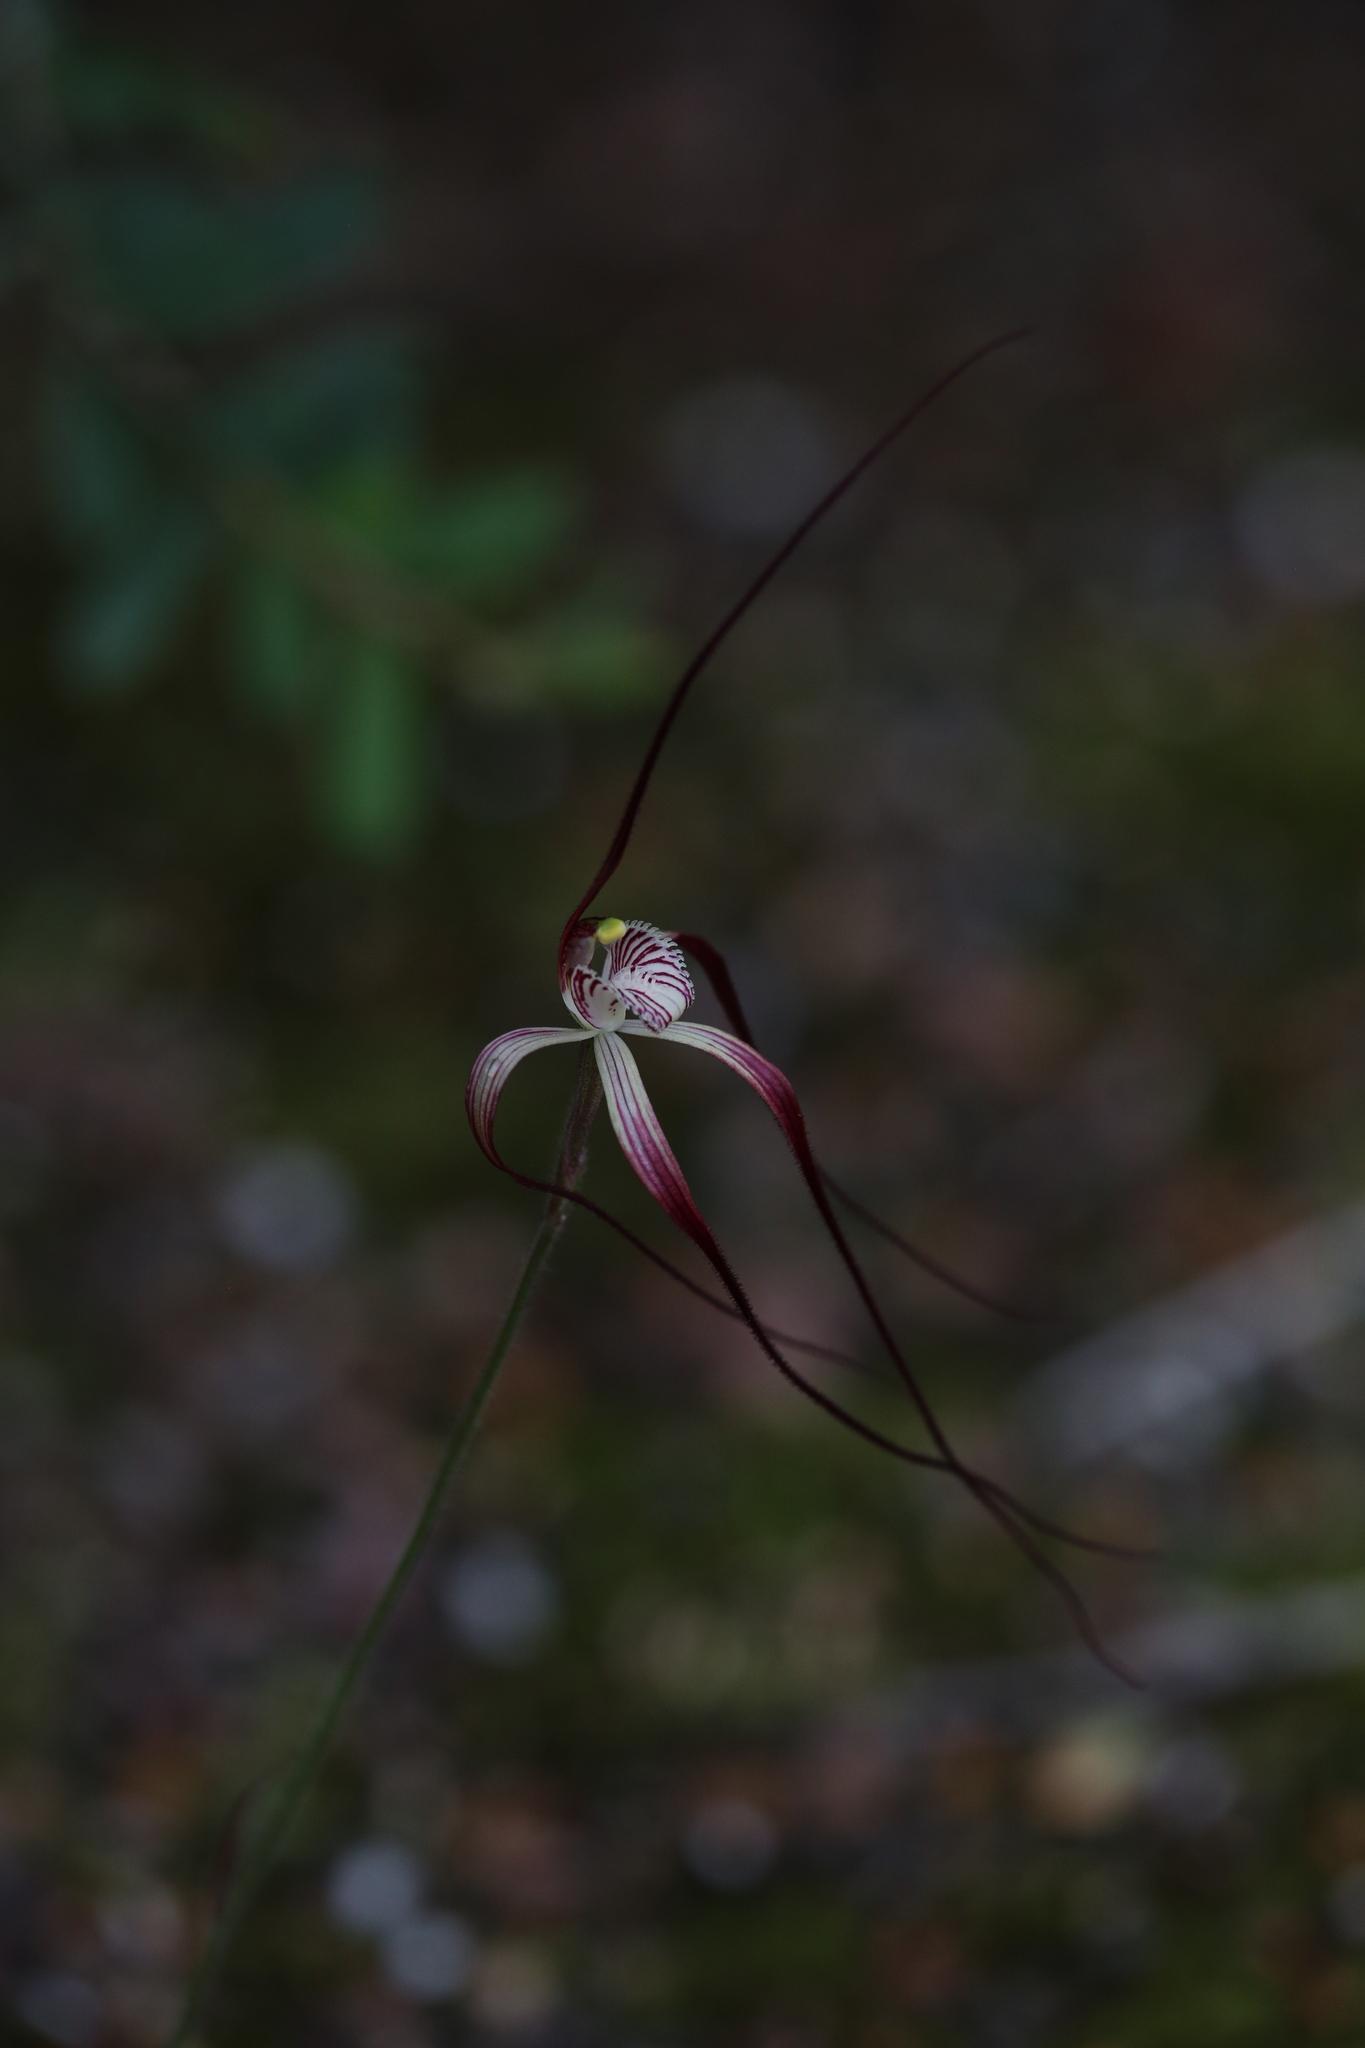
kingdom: Plantae
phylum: Tracheophyta
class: Liliopsida
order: Asparagales
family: Orchidaceae
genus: Caladenia
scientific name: Caladenia chapmanii
